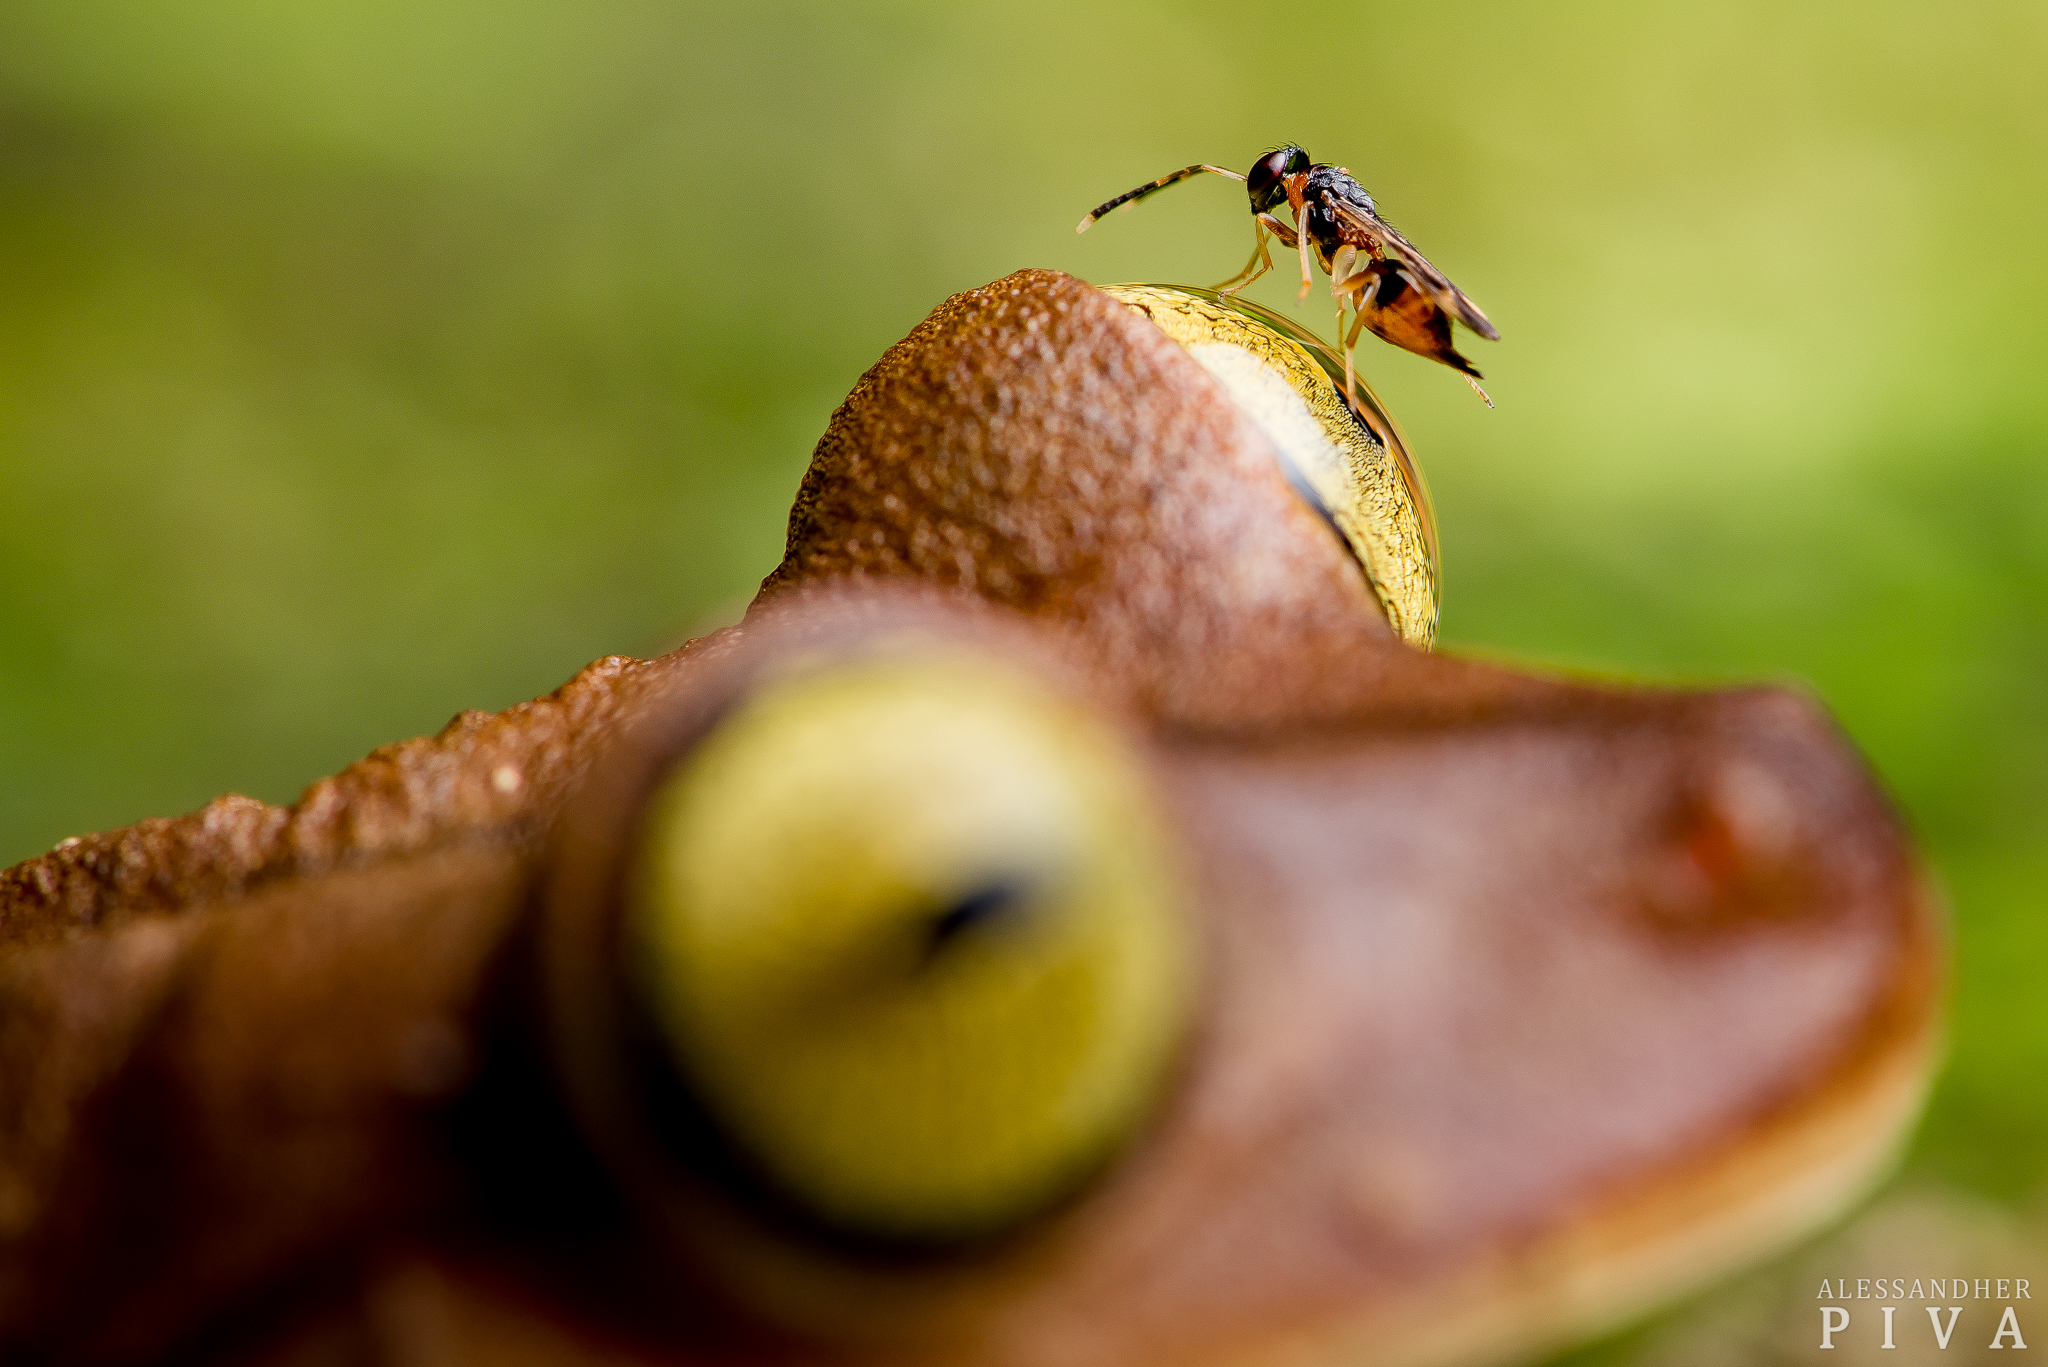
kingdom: Animalia
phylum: Chordata
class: Amphibia
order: Anura
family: Hylidae
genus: Bokermannohyla
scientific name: Bokermannohyla hylax
